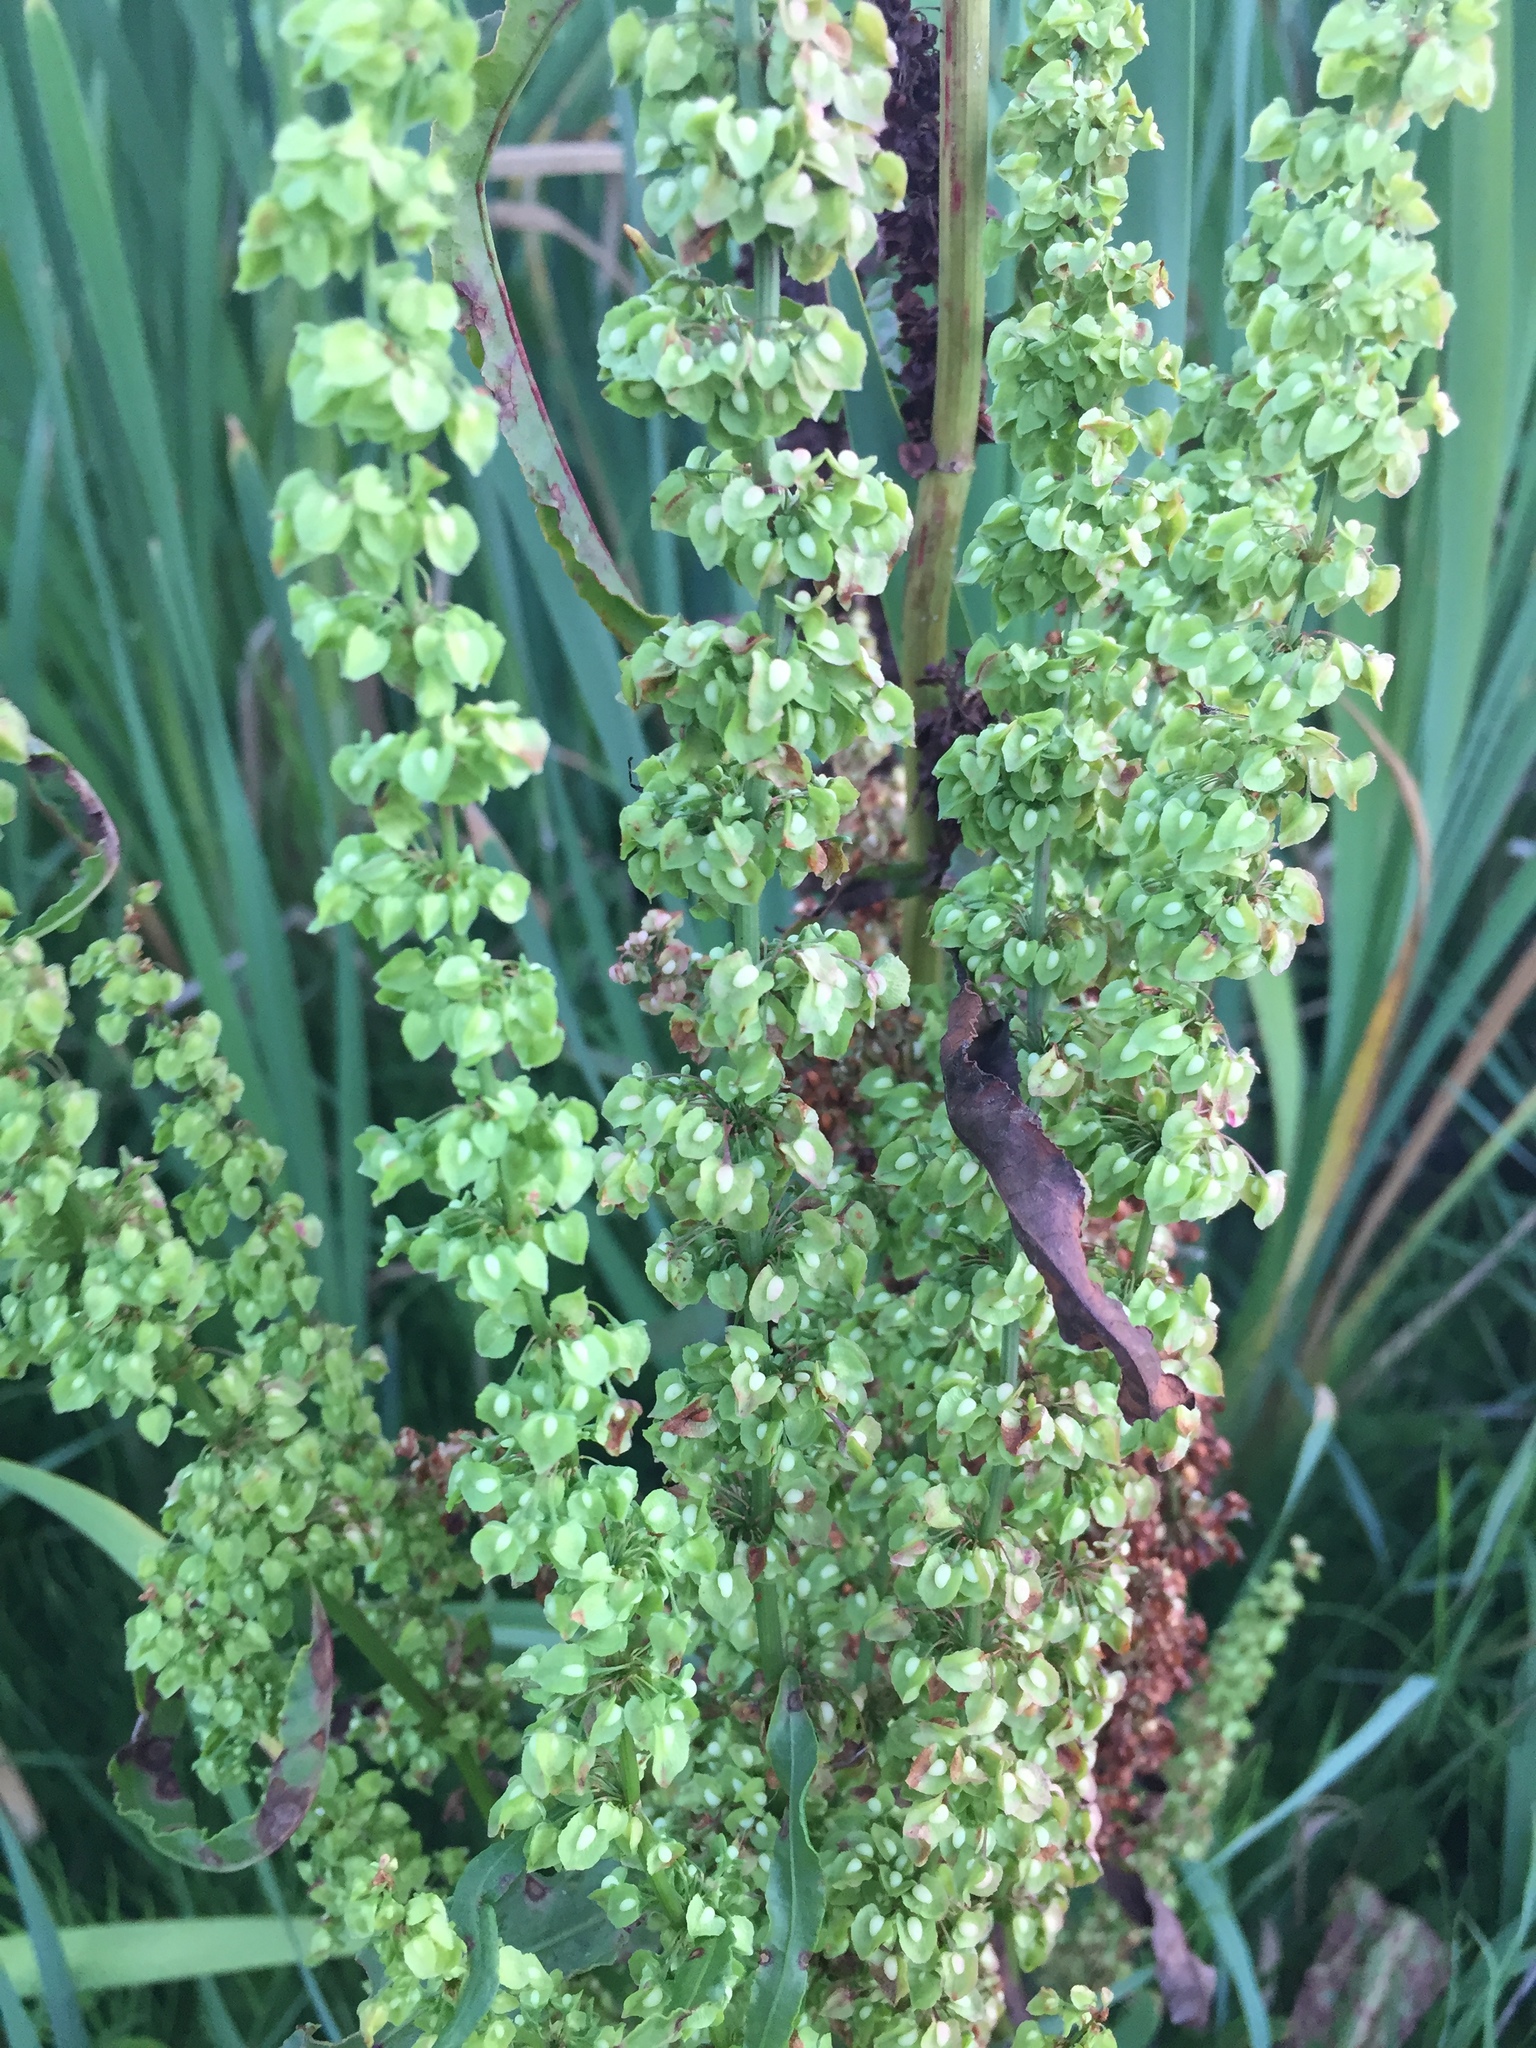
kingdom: Plantae
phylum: Tracheophyta
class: Magnoliopsida
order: Caryophyllales
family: Polygonaceae
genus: Rumex
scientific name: Rumex crispus
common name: Curled dock
